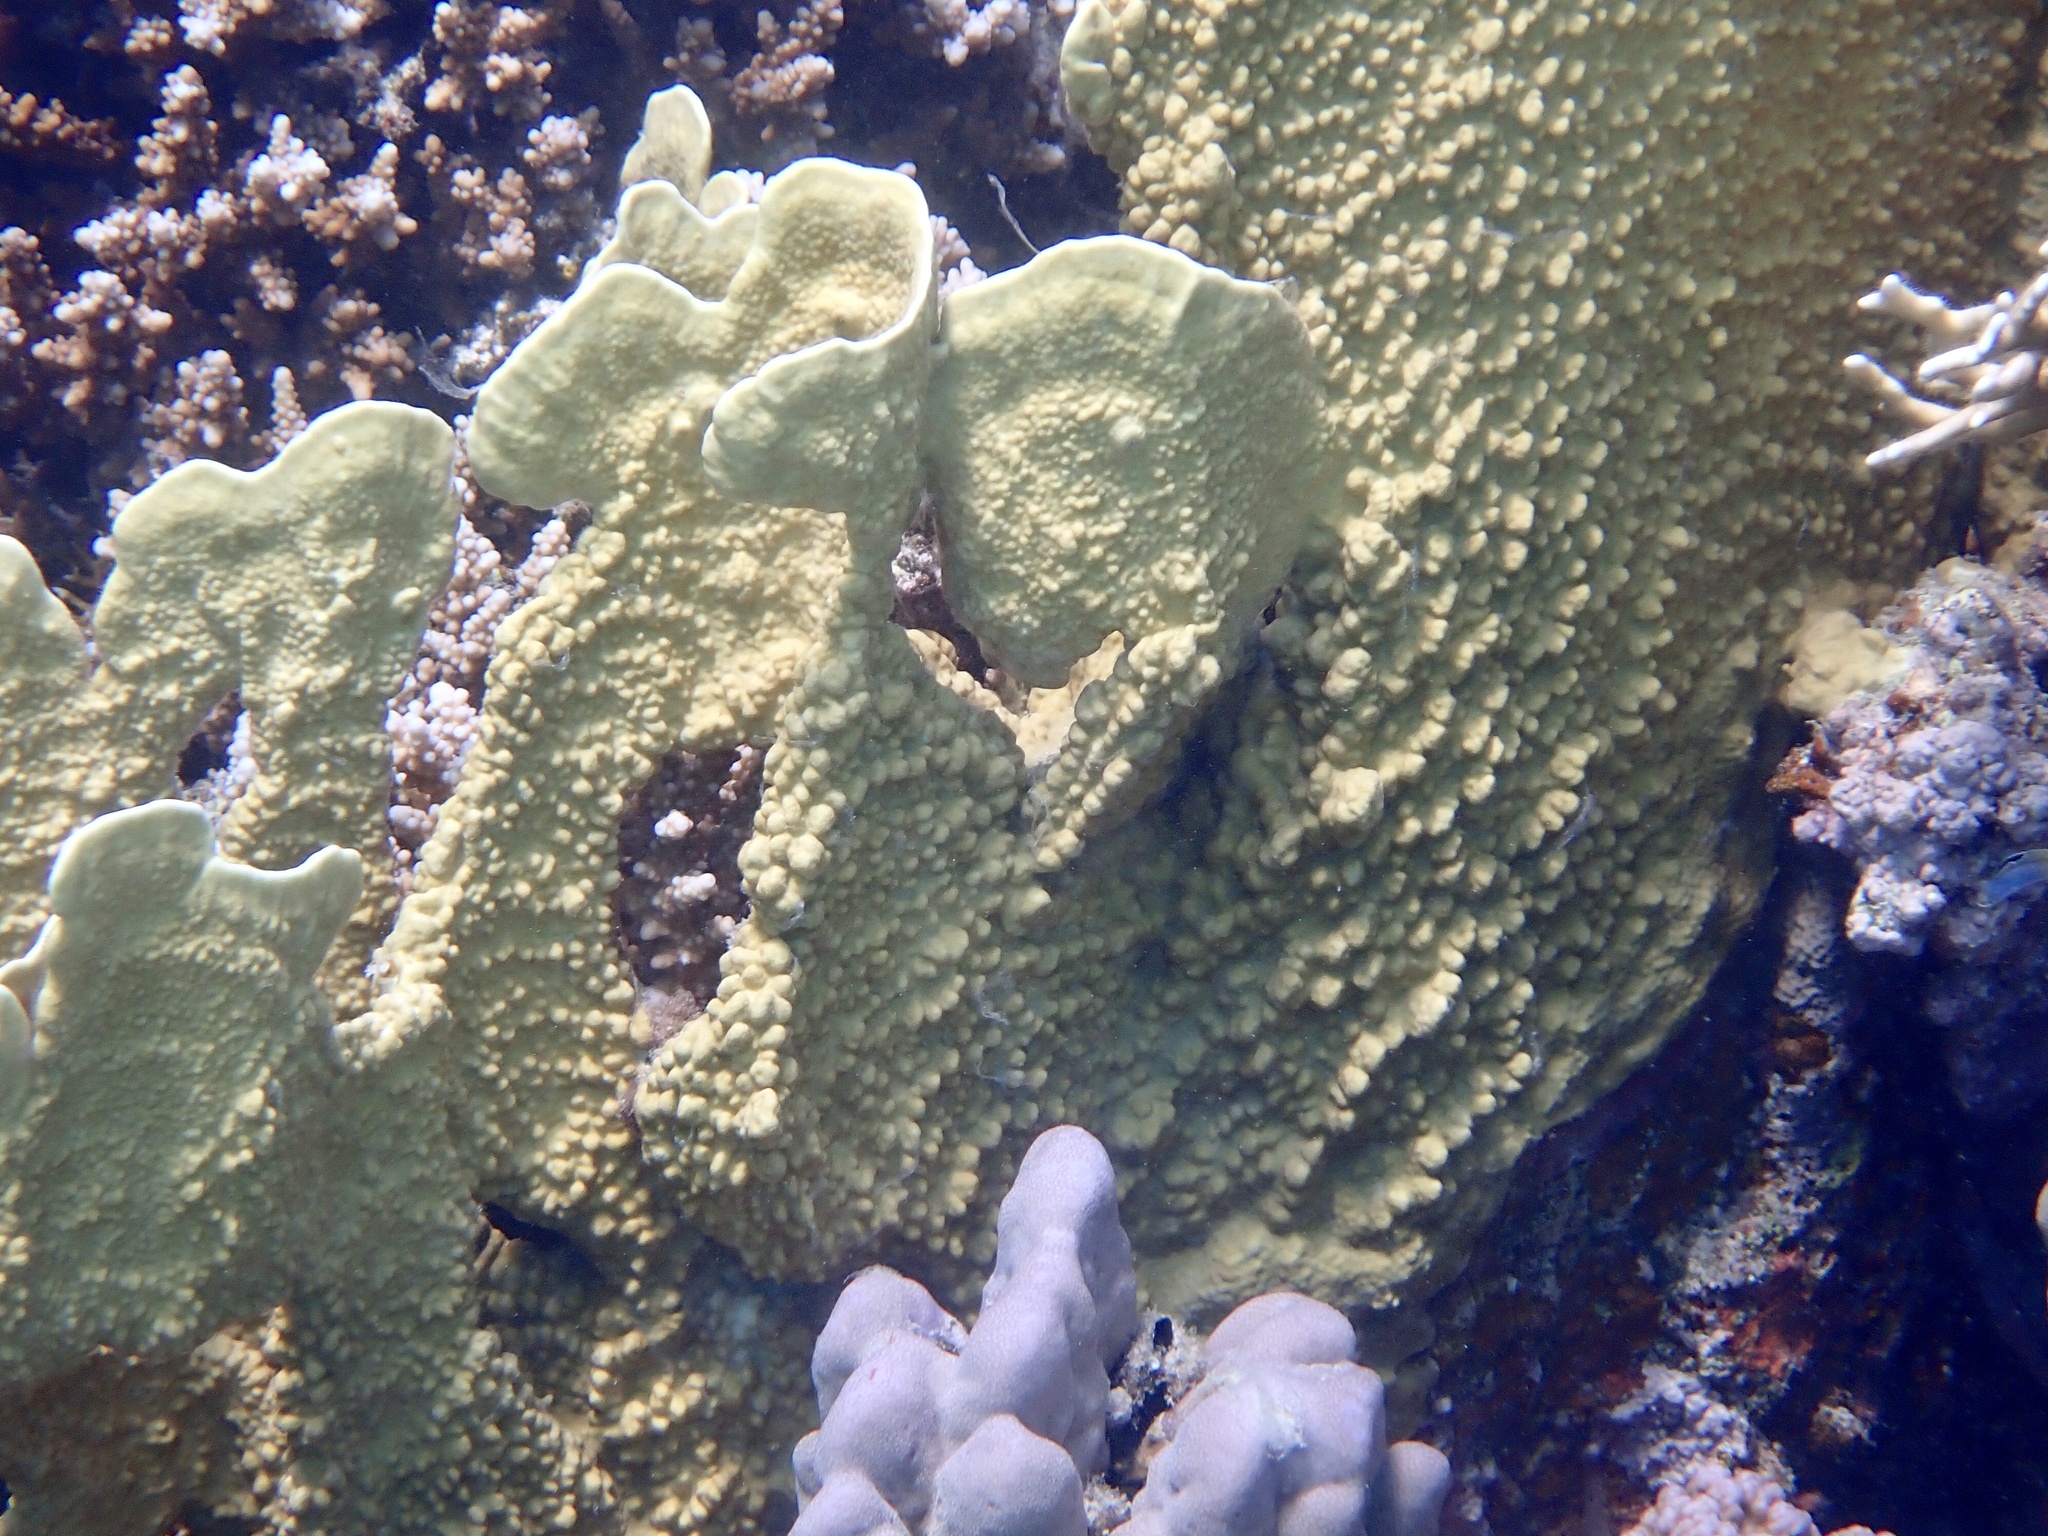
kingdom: Animalia
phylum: Cnidaria
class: Hydrozoa
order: Anthoathecata
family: Milleporidae
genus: Millepora
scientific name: Millepora platyphylla
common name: Sheet fire coral
